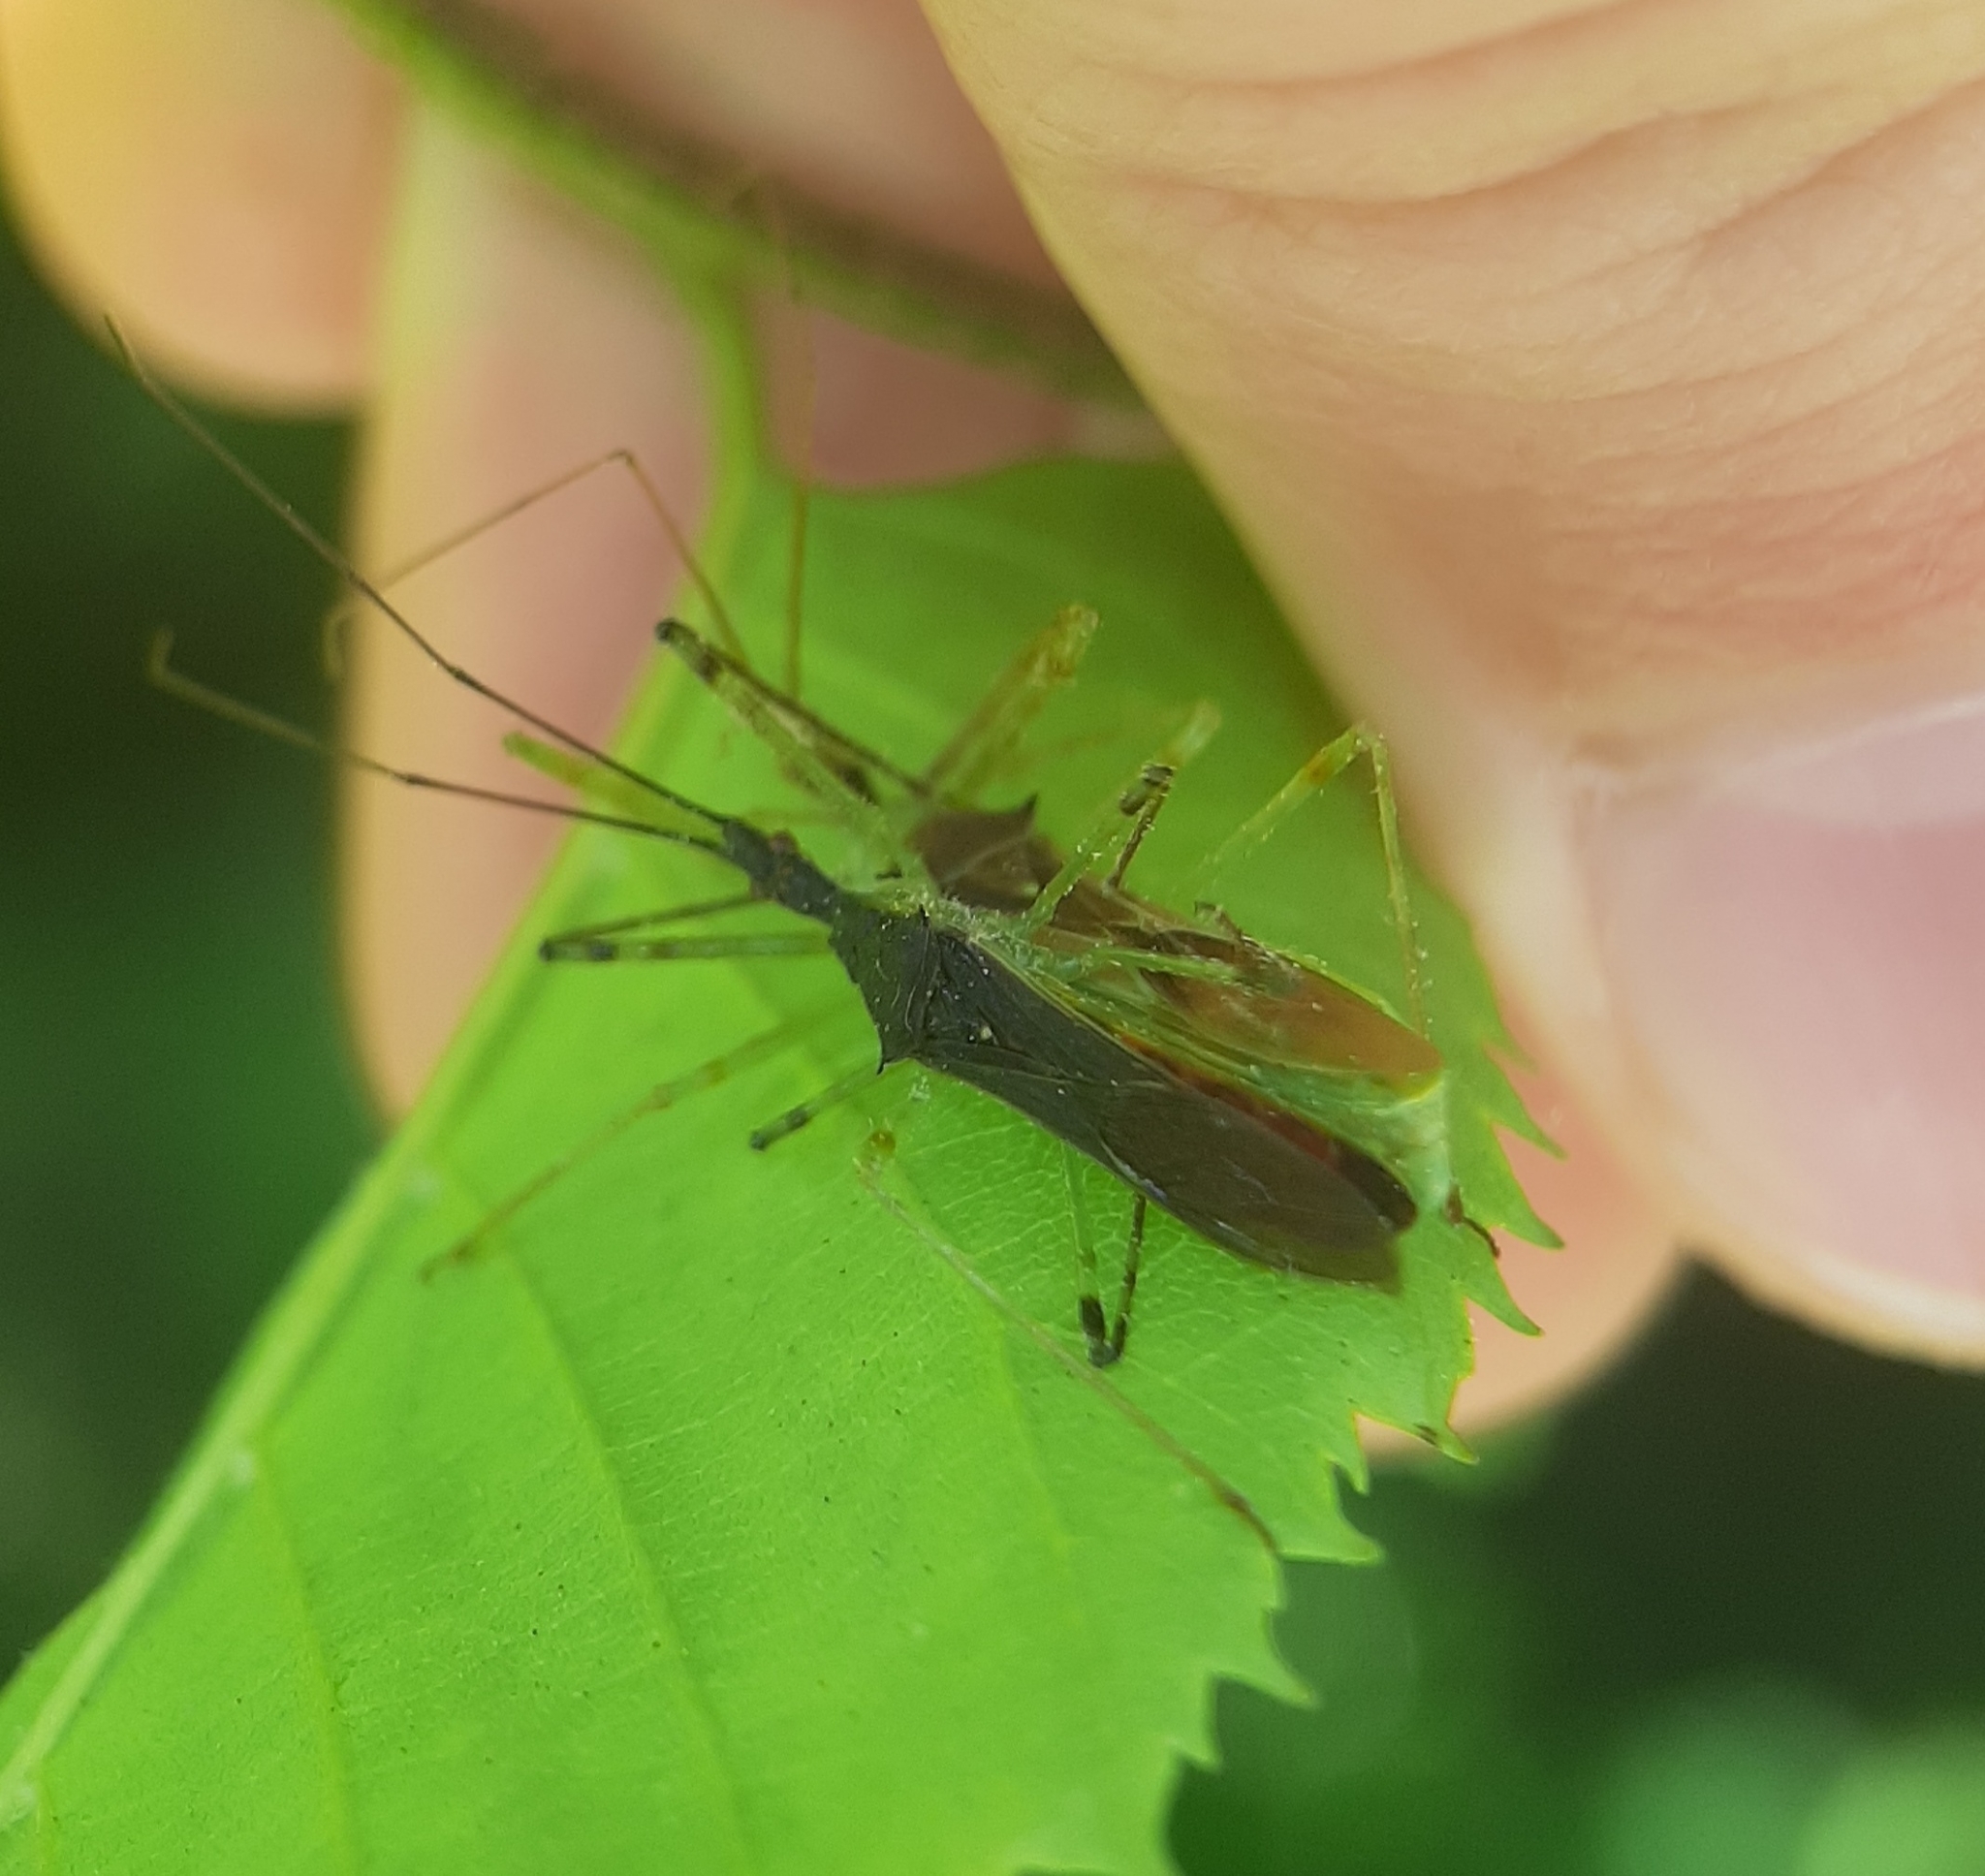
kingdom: Animalia
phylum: Arthropoda
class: Insecta
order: Hemiptera
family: Reduviidae
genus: Zelus
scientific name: Zelus luridus
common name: Pale green assassin bug
